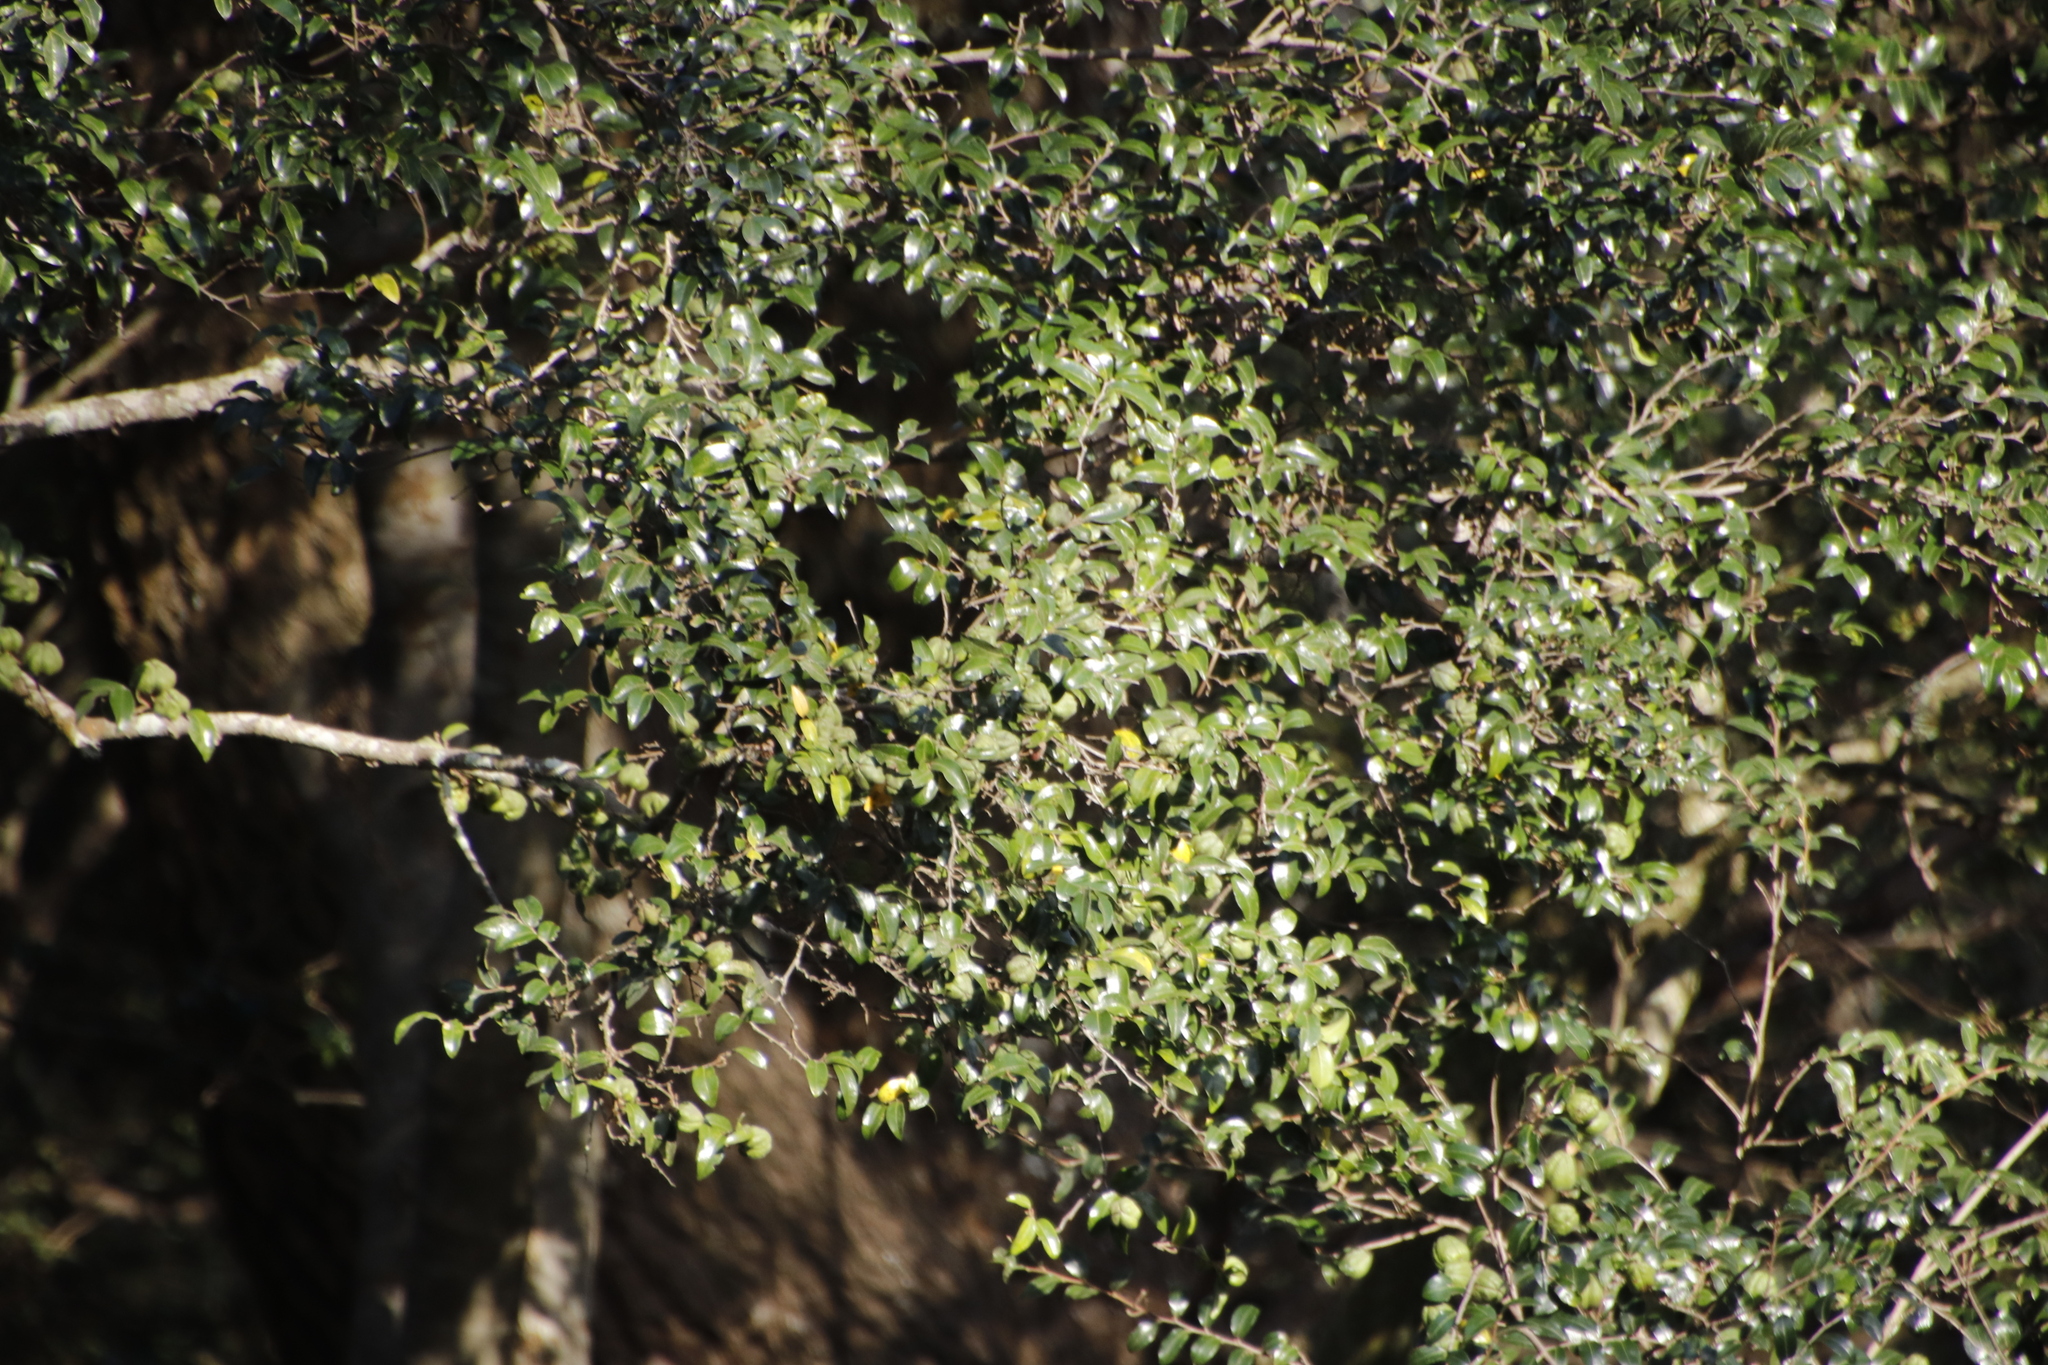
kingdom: Plantae
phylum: Tracheophyta
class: Magnoliopsida
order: Ericales
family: Ebenaceae
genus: Diospyros
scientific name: Diospyros whyteana
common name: Bladder-nut
